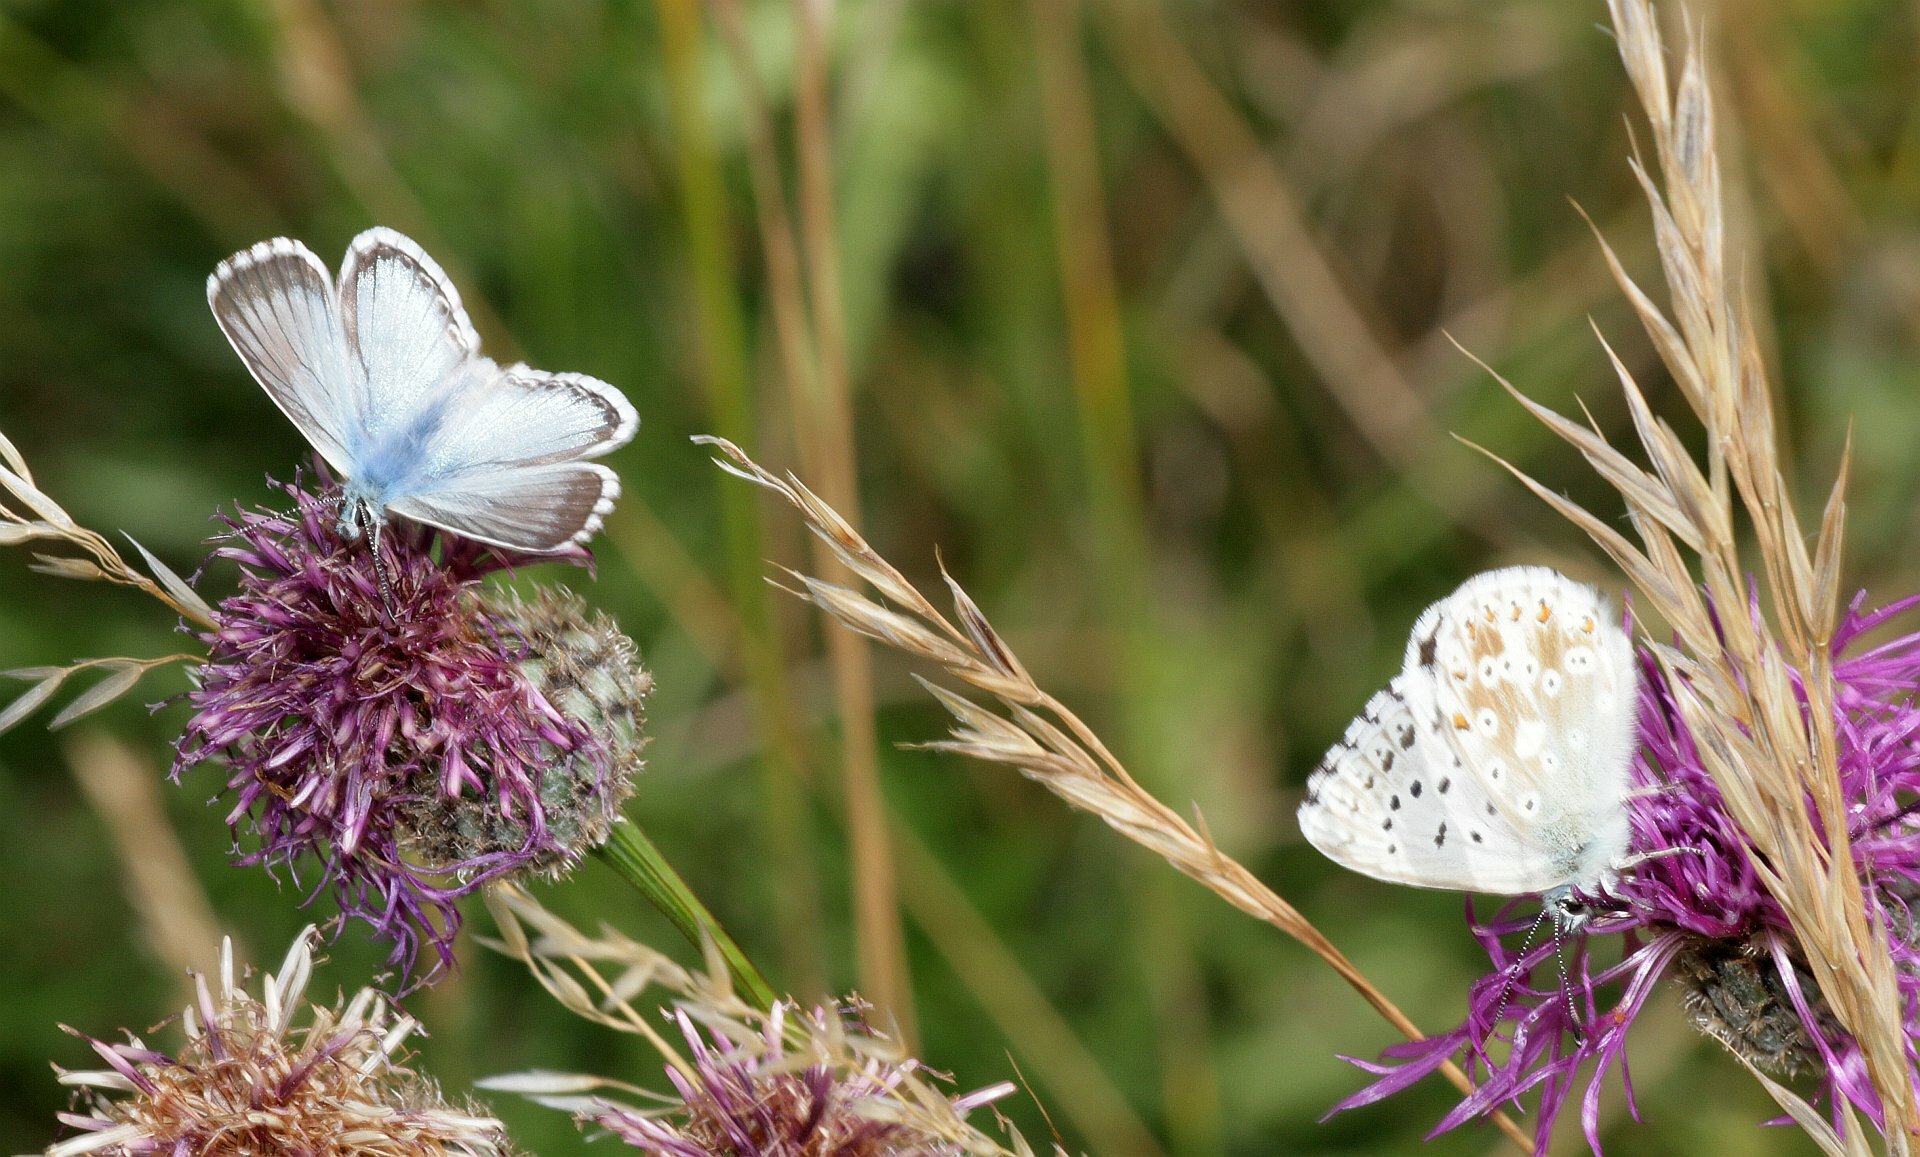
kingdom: Animalia
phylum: Arthropoda
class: Insecta
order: Lepidoptera
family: Lycaenidae
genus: Lysandra
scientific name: Lysandra coridon
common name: Chalkhill blue
